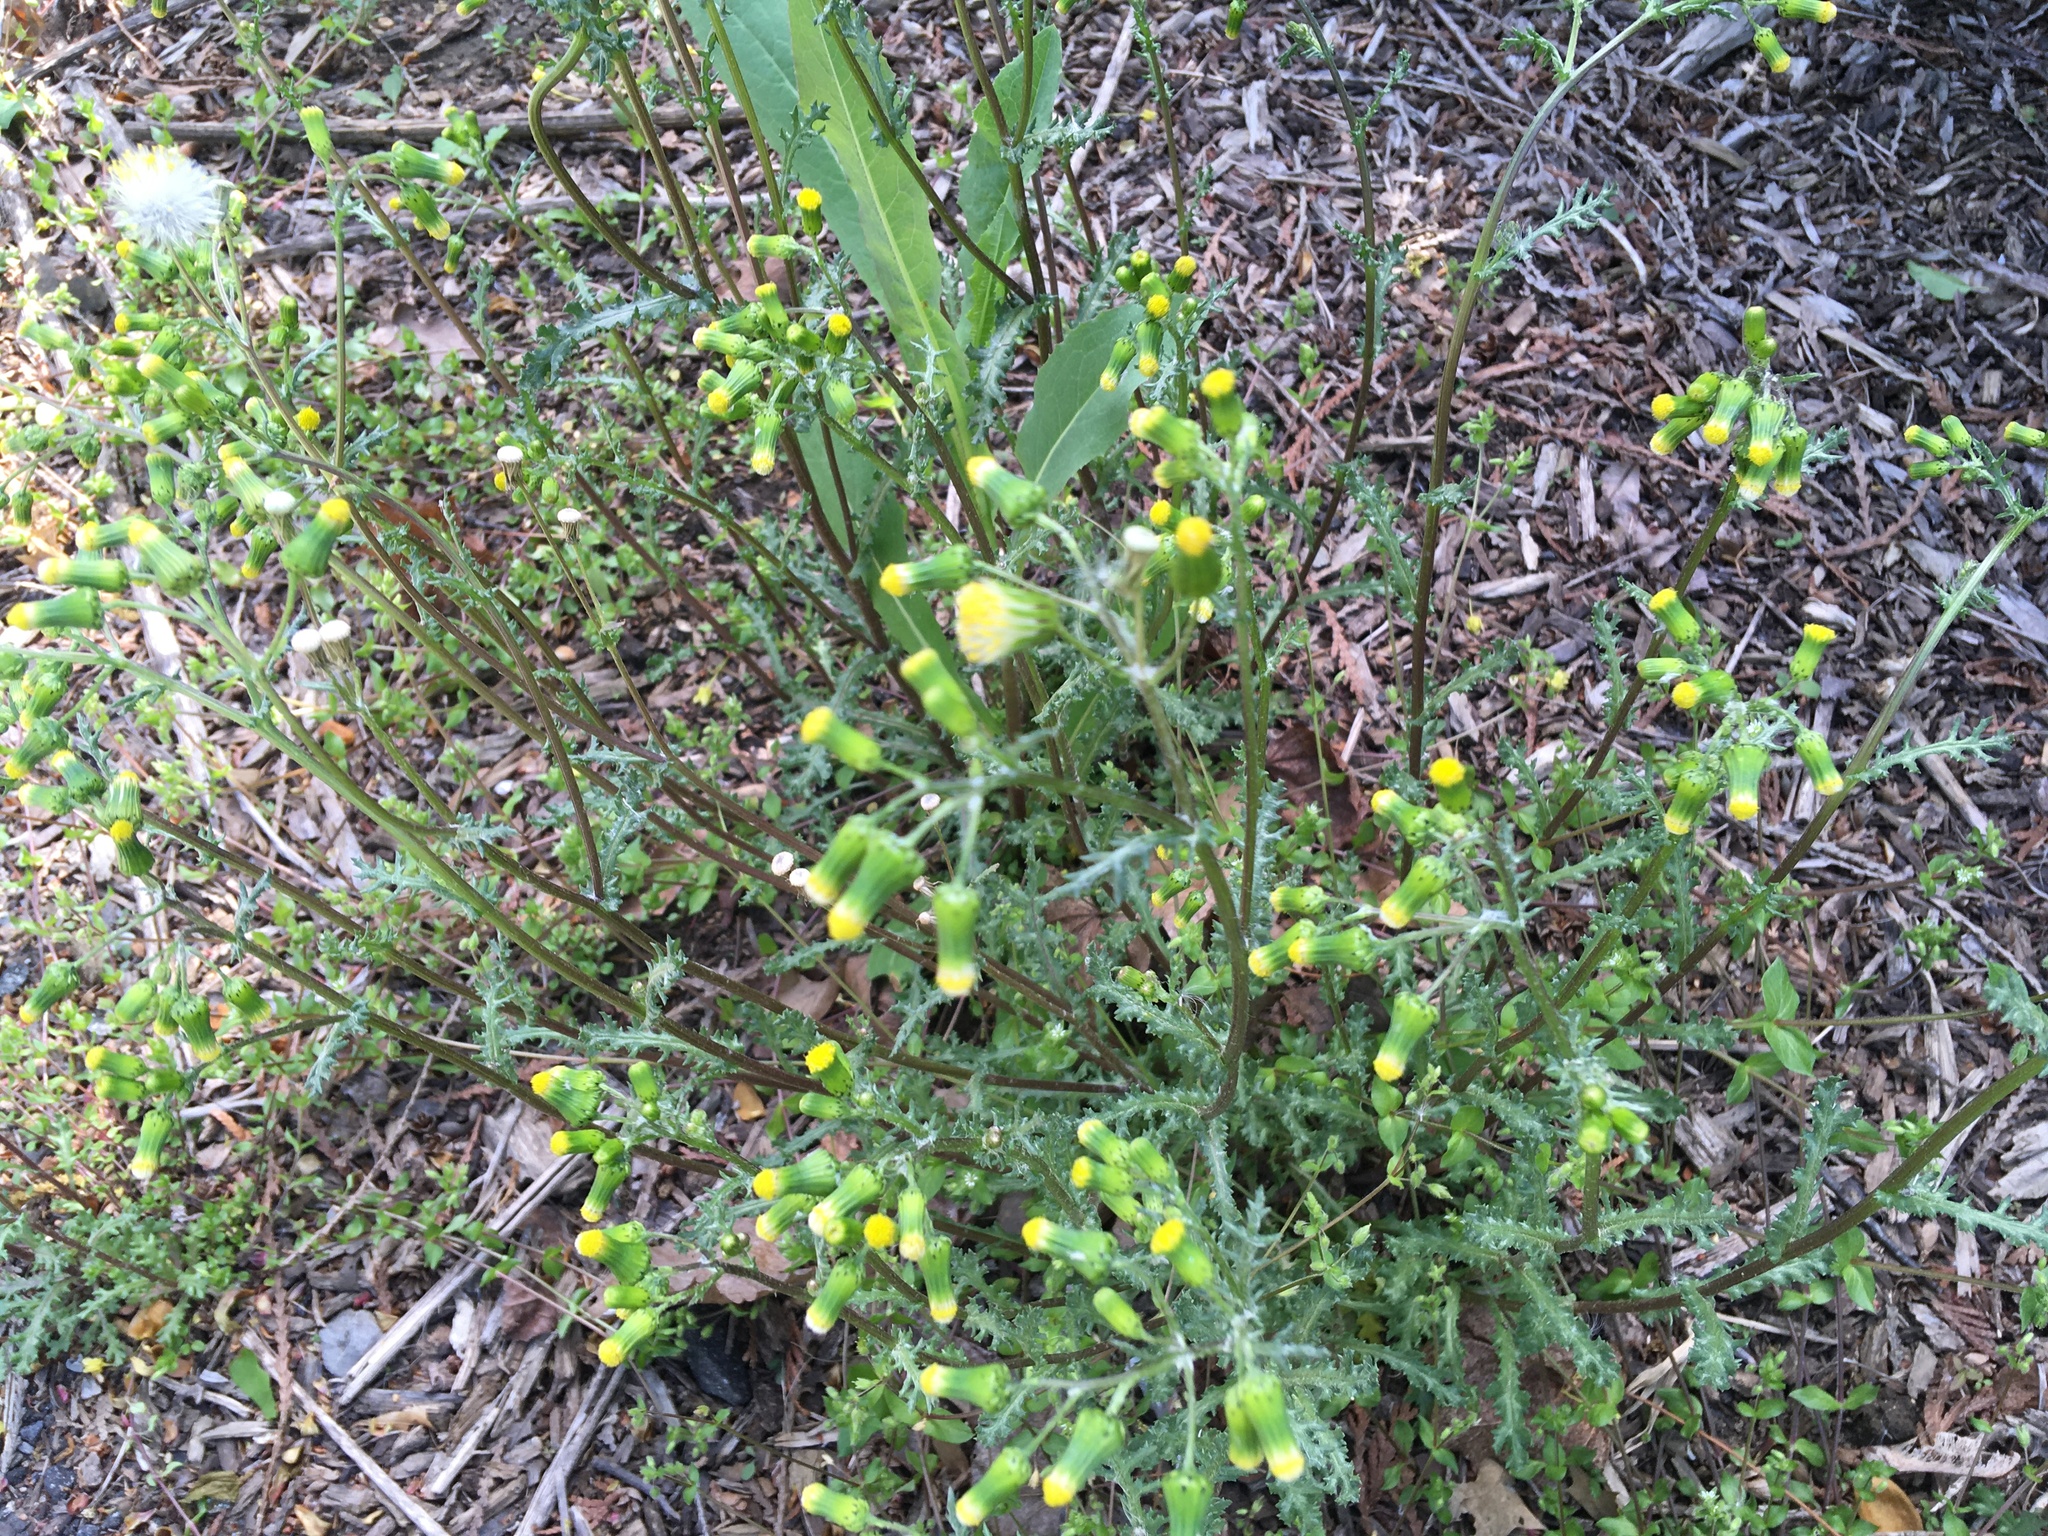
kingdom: Plantae
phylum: Tracheophyta
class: Magnoliopsida
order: Asterales
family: Asteraceae
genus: Senecio
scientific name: Senecio vulgaris
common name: Old-man-in-the-spring
